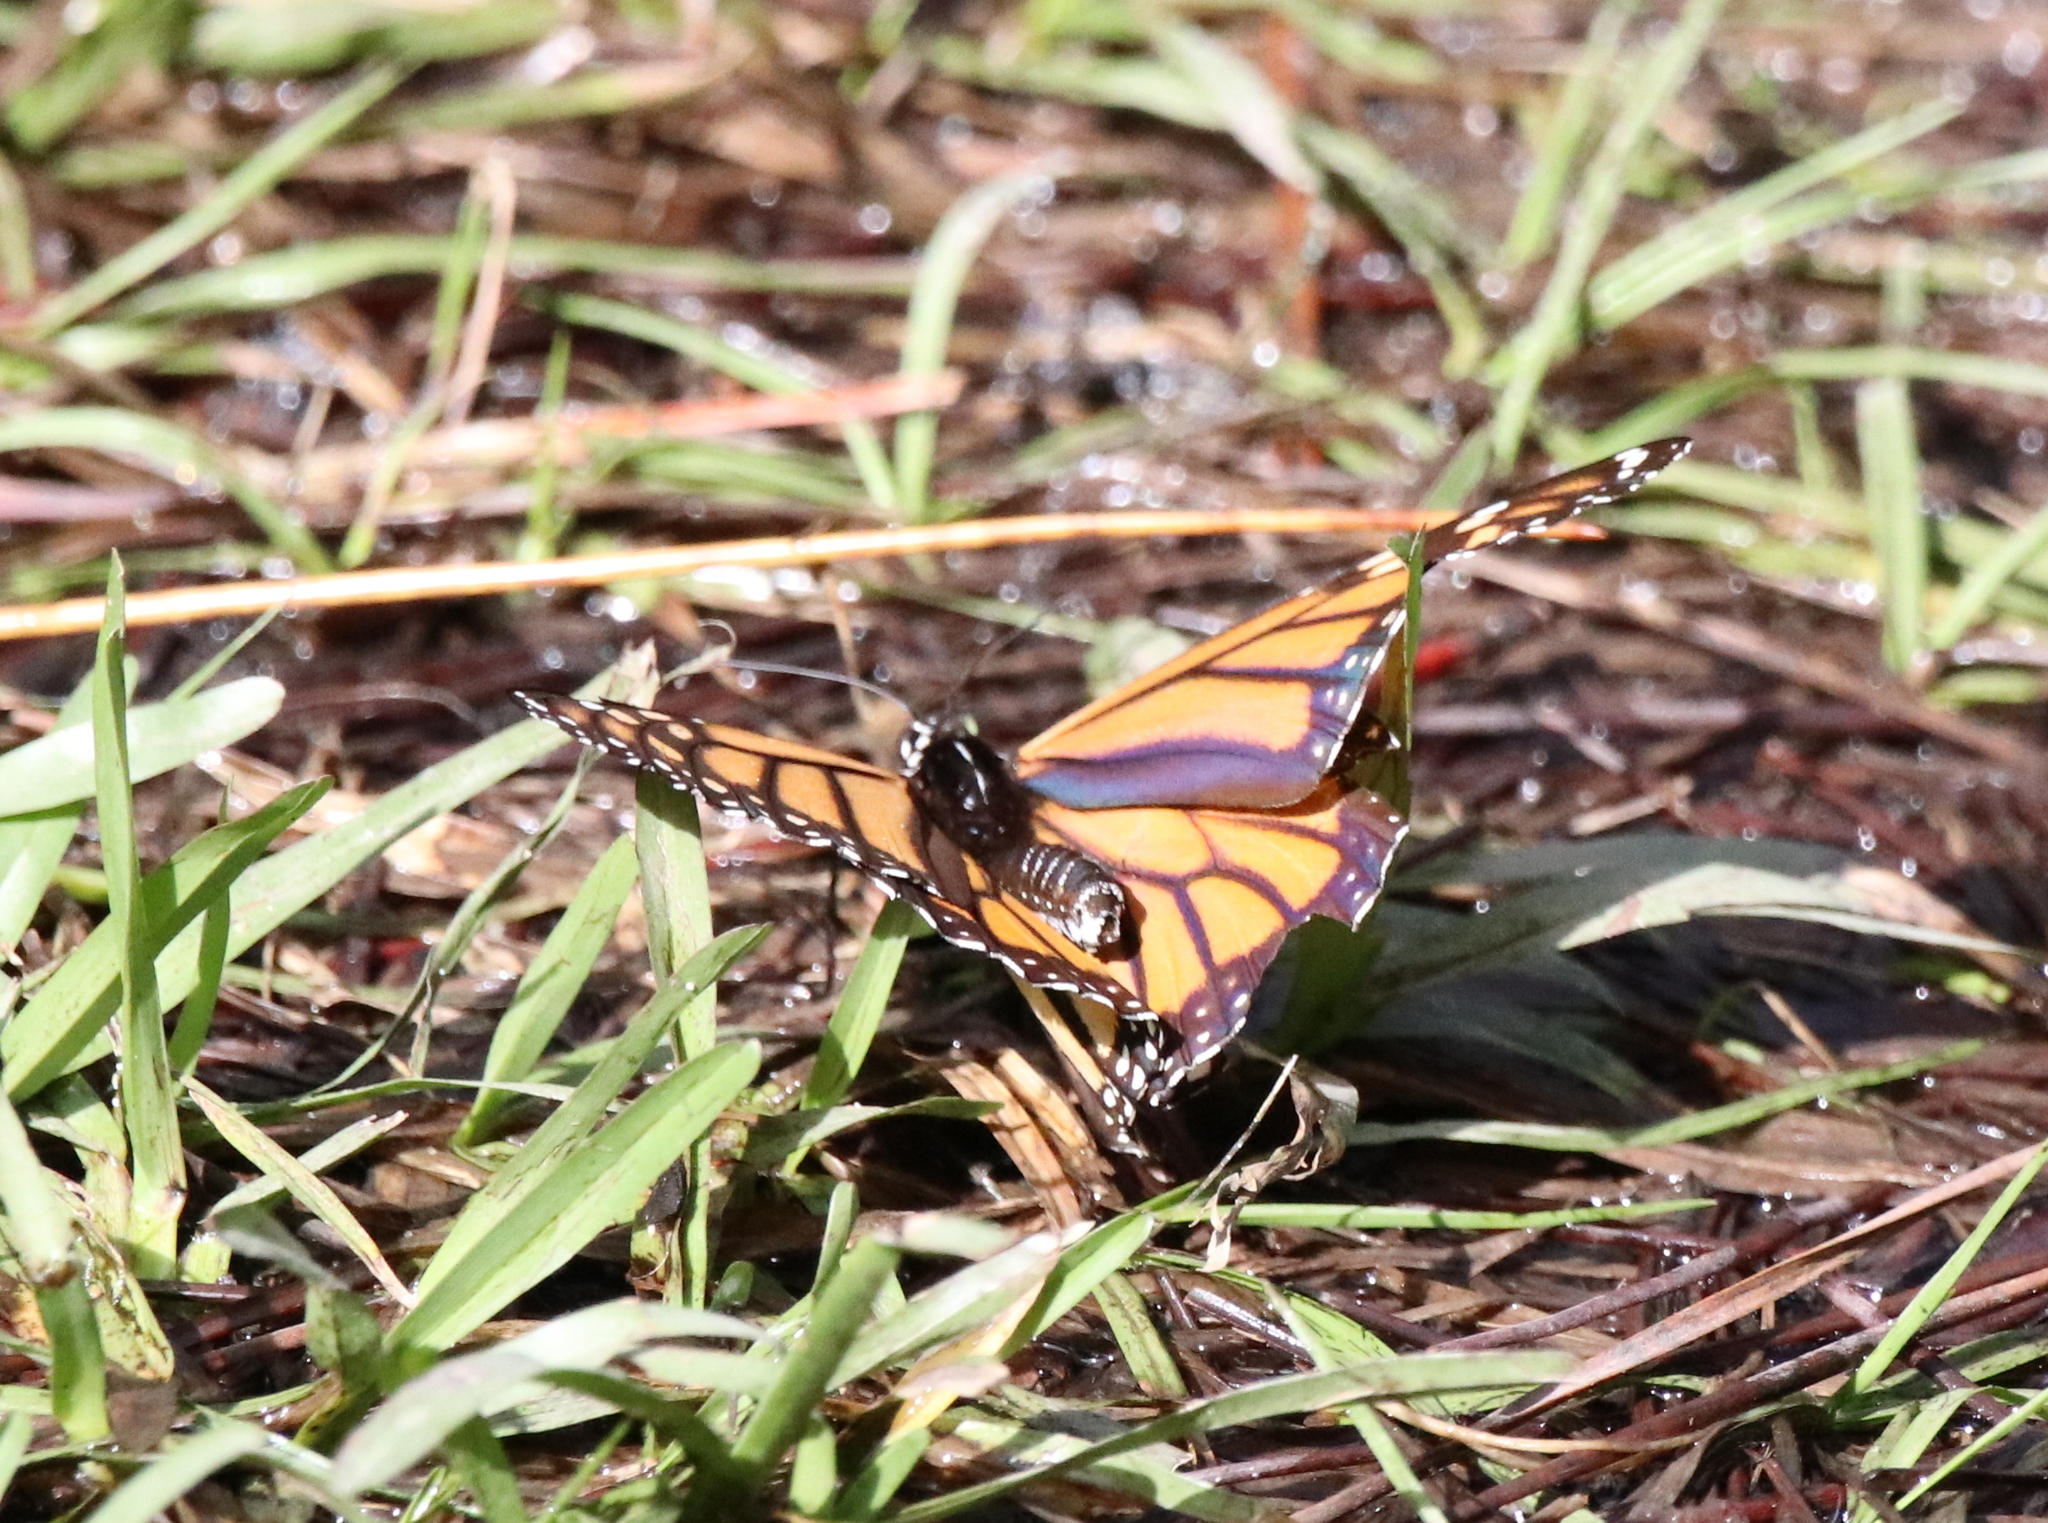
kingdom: Animalia
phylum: Arthropoda
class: Insecta
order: Lepidoptera
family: Nymphalidae
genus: Danaus
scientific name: Danaus plexippus
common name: Monarch
